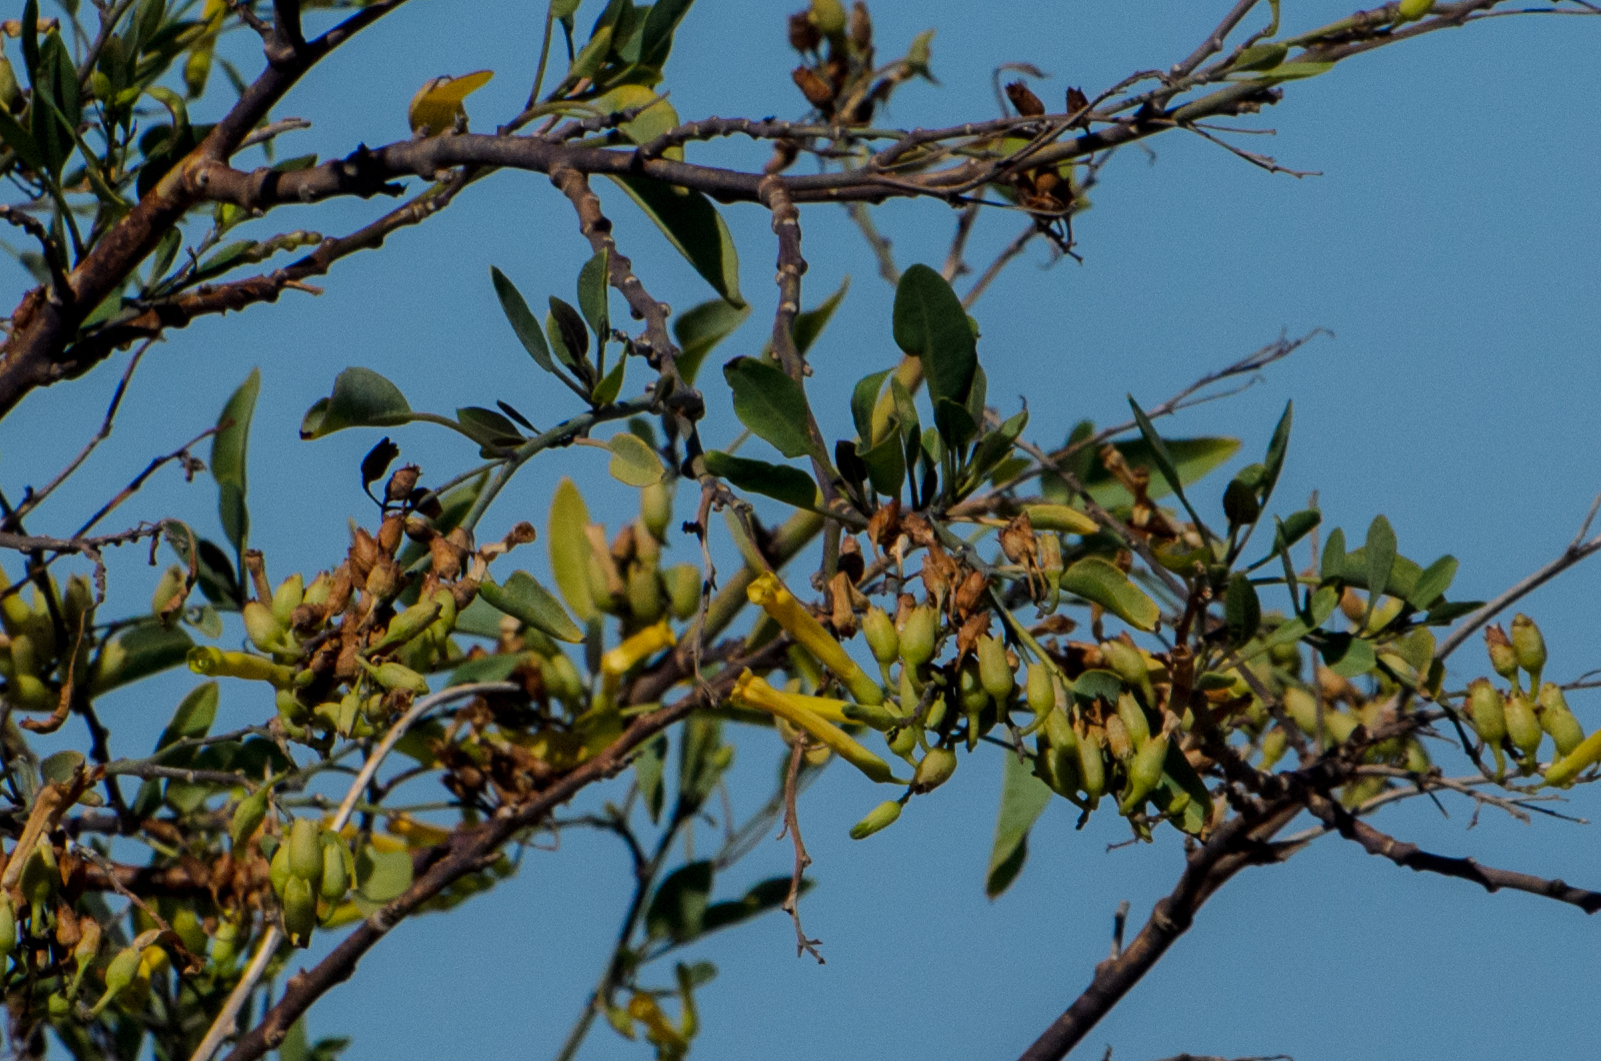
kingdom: Plantae
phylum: Tracheophyta
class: Magnoliopsida
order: Solanales
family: Solanaceae
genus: Nicotiana
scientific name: Nicotiana glauca
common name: Tree tobacco
